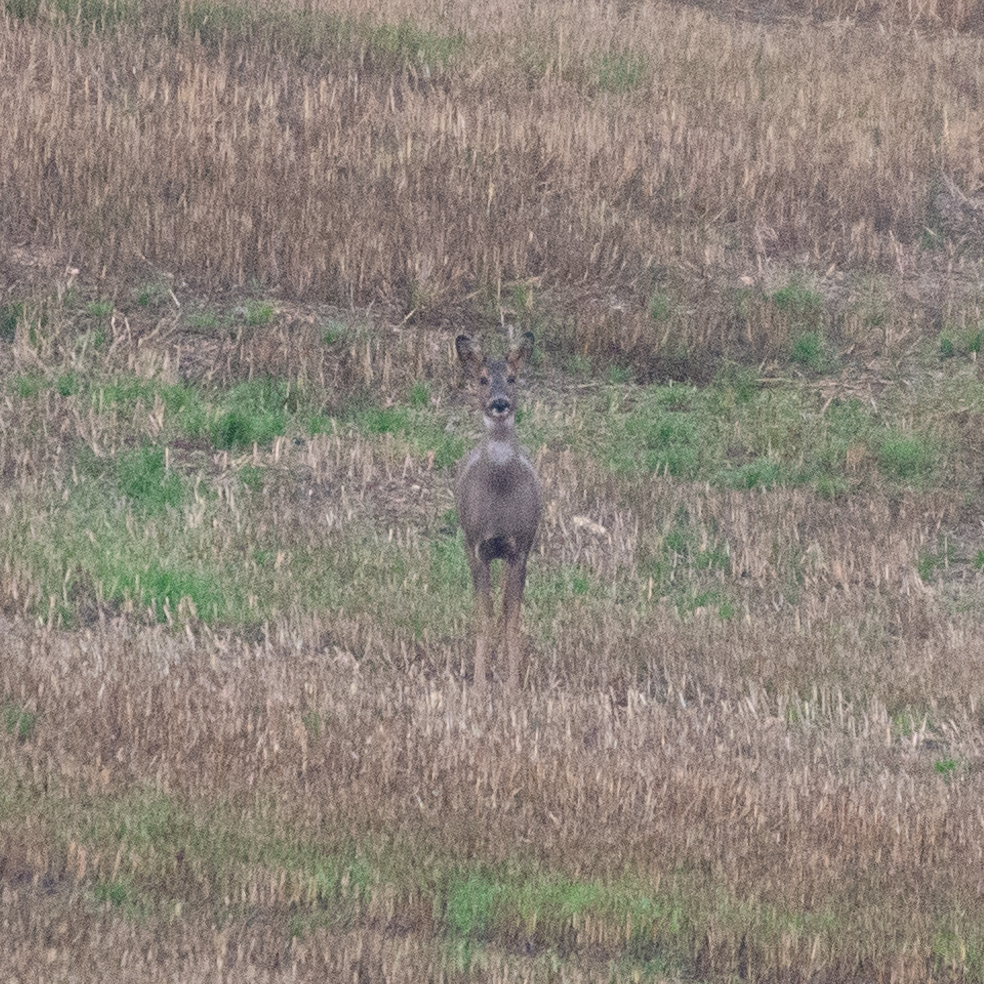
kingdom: Animalia
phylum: Chordata
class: Mammalia
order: Artiodactyla
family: Cervidae
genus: Capreolus
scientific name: Capreolus capreolus
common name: Western roe deer
